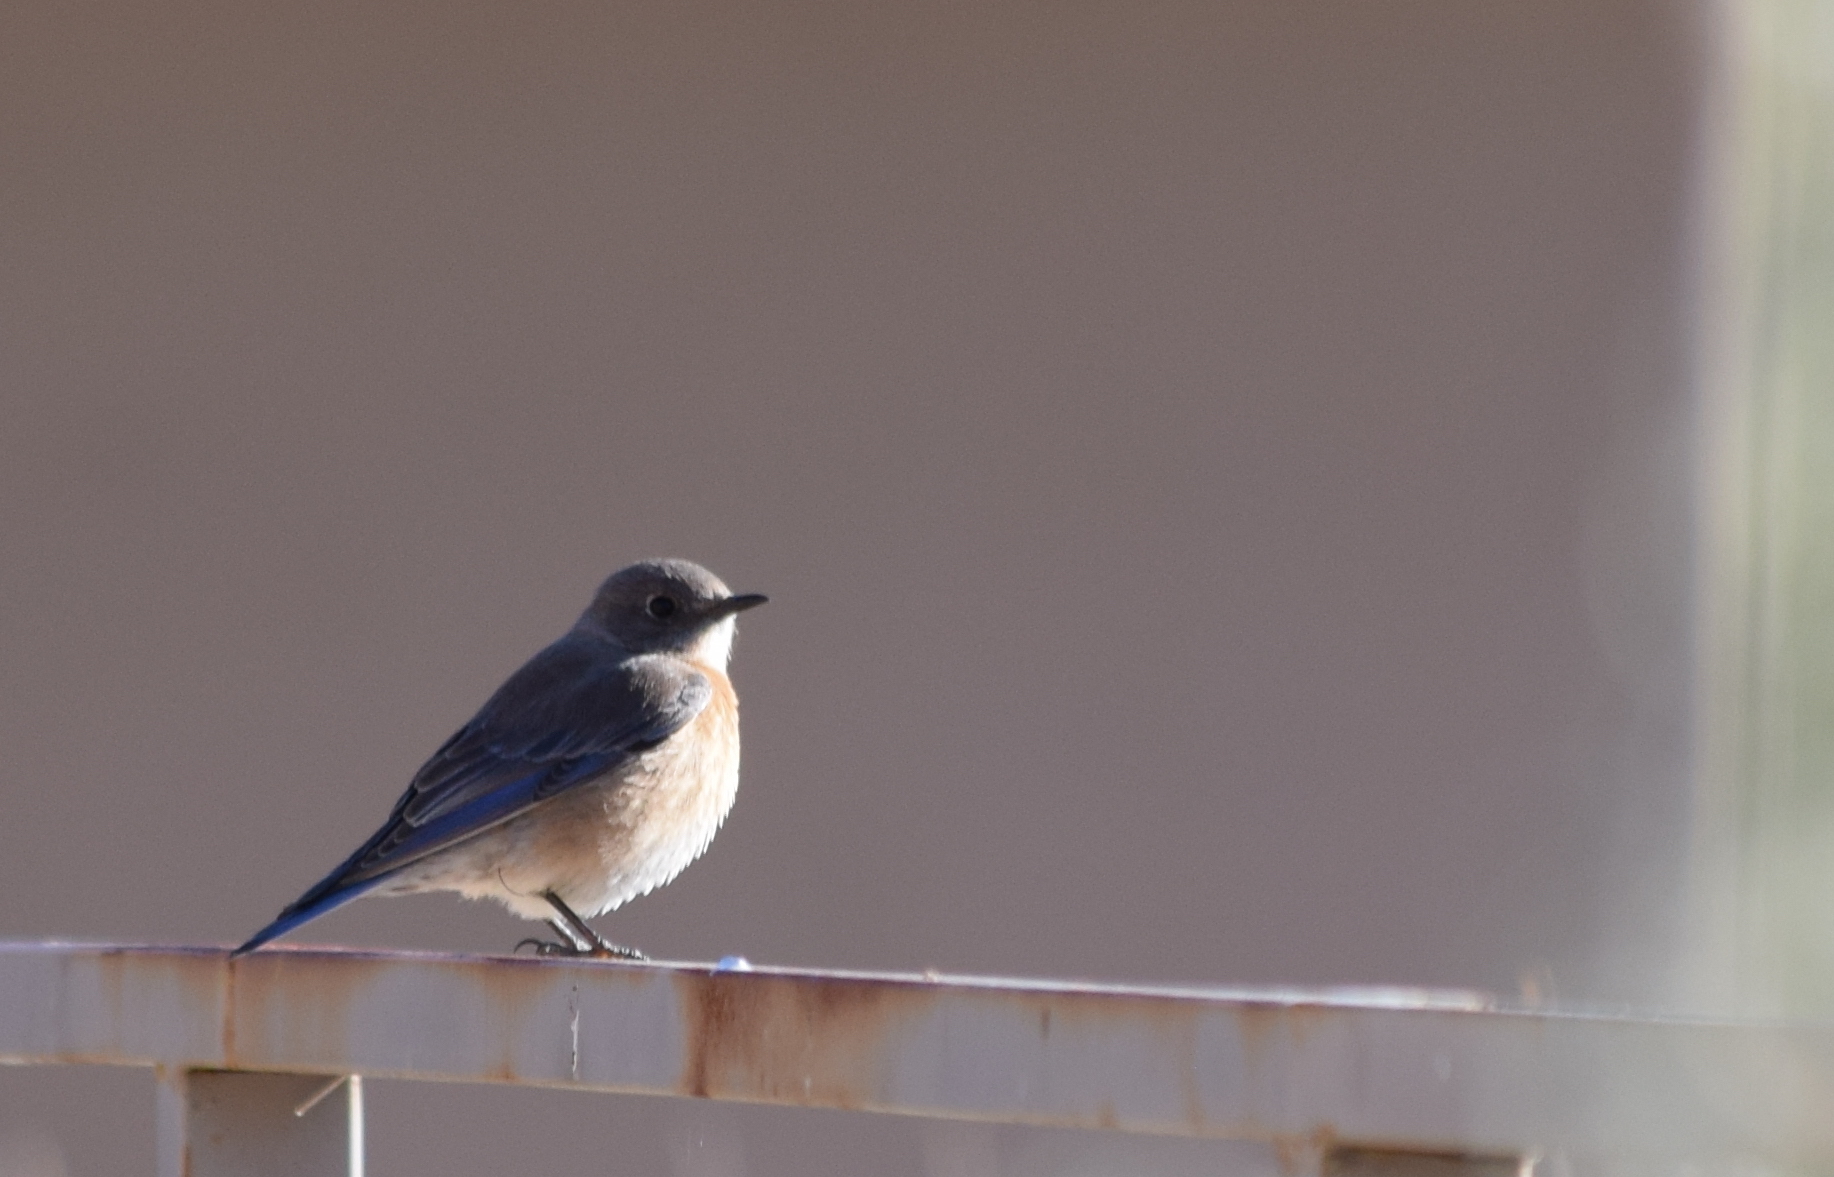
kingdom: Animalia
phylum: Chordata
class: Aves
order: Passeriformes
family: Turdidae
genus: Sialia
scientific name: Sialia mexicana
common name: Western bluebird
